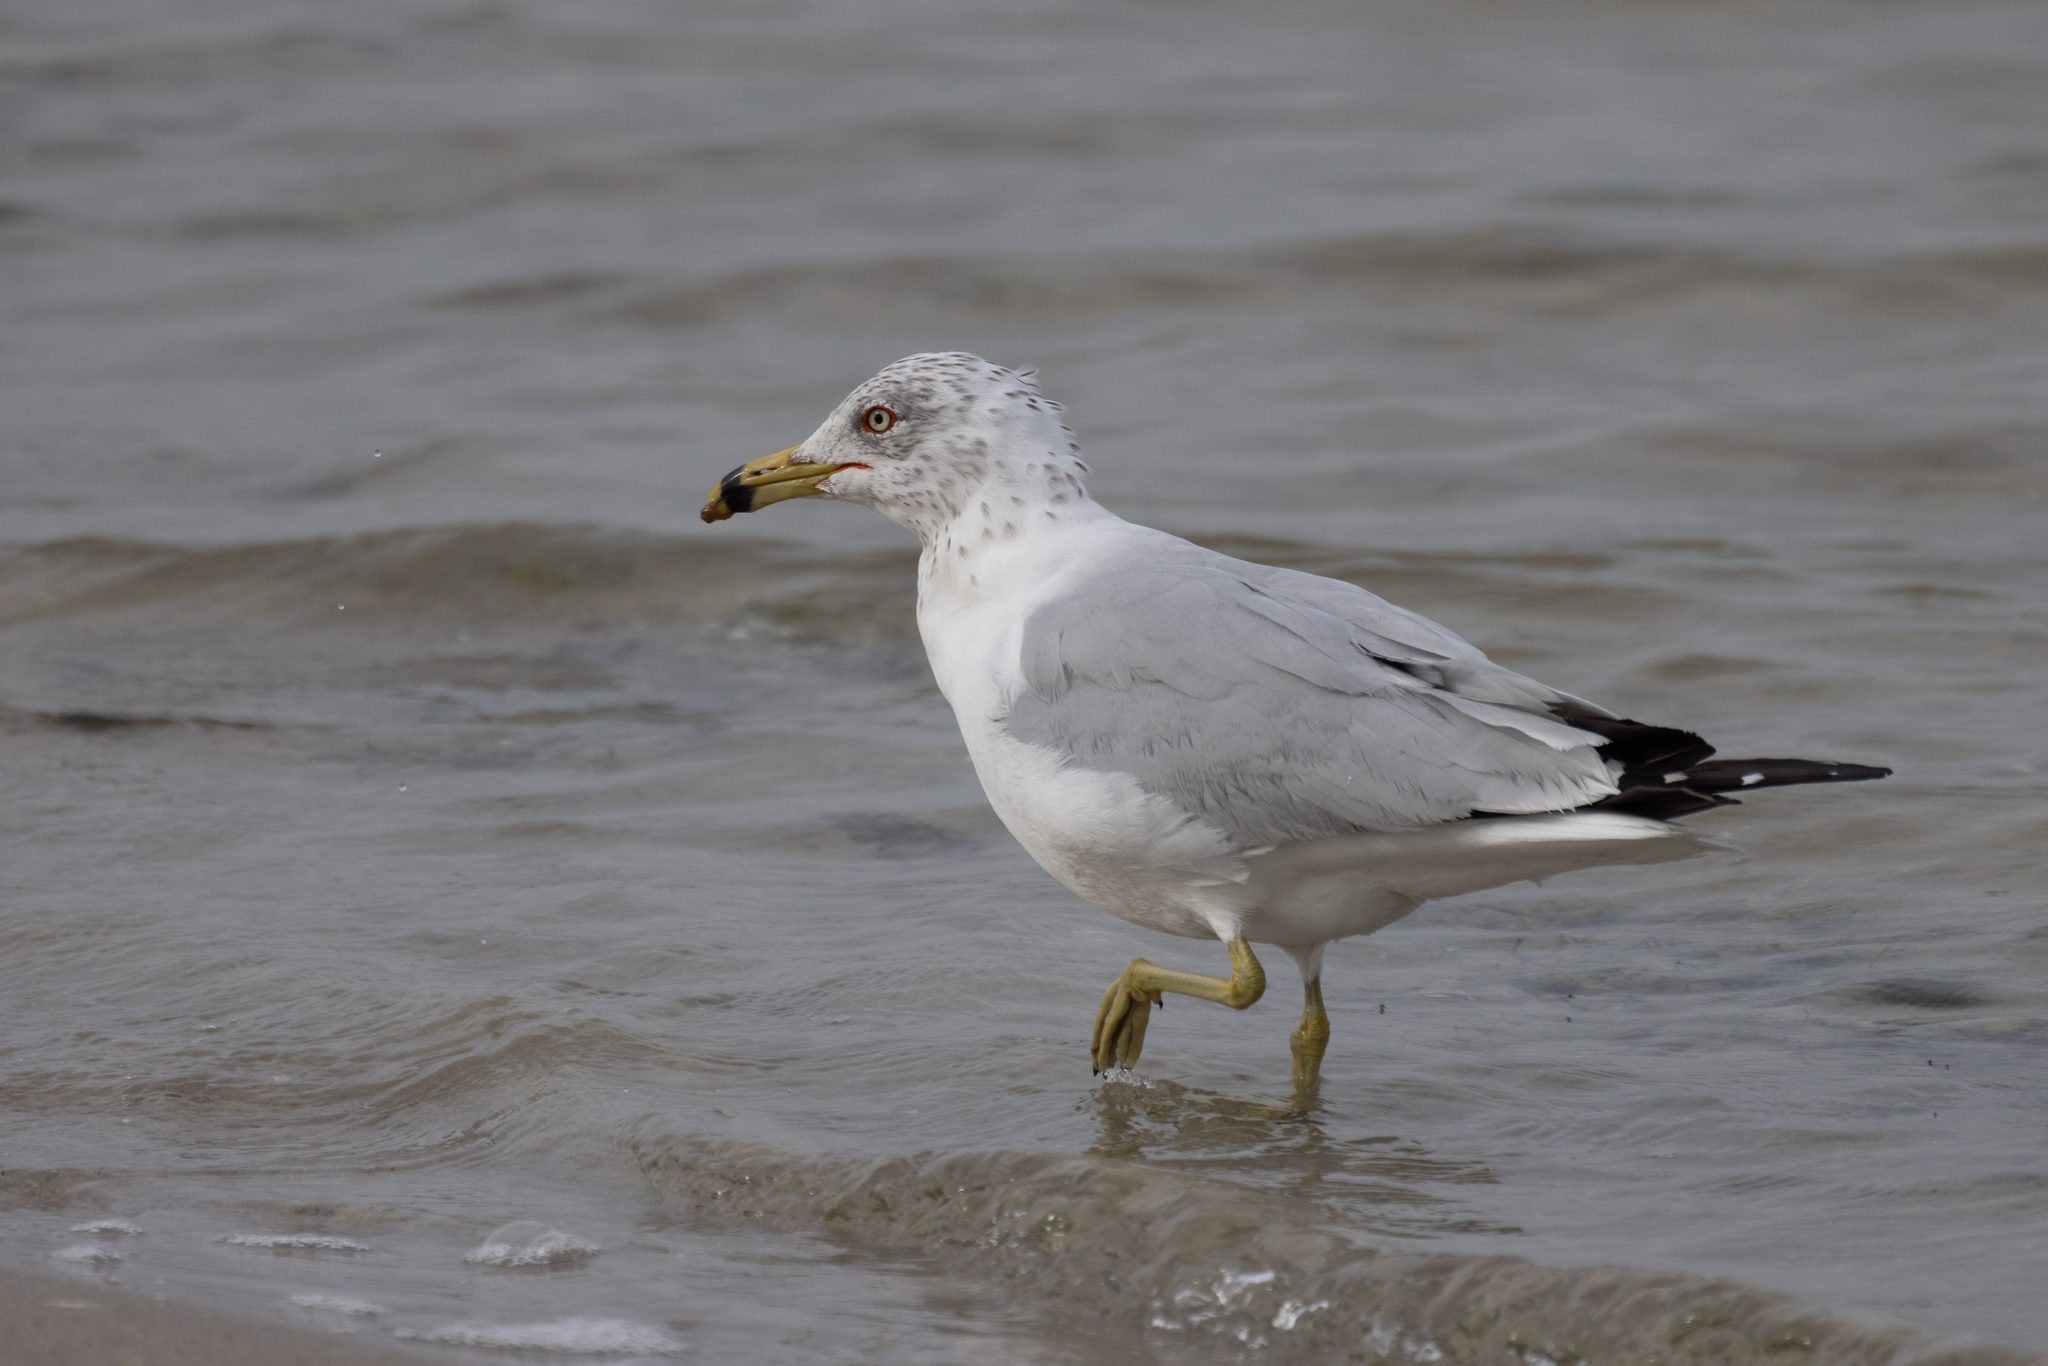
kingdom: Animalia
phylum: Chordata
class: Aves
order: Charadriiformes
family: Laridae
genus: Larus
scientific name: Larus delawarensis
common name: Ring-billed gull
